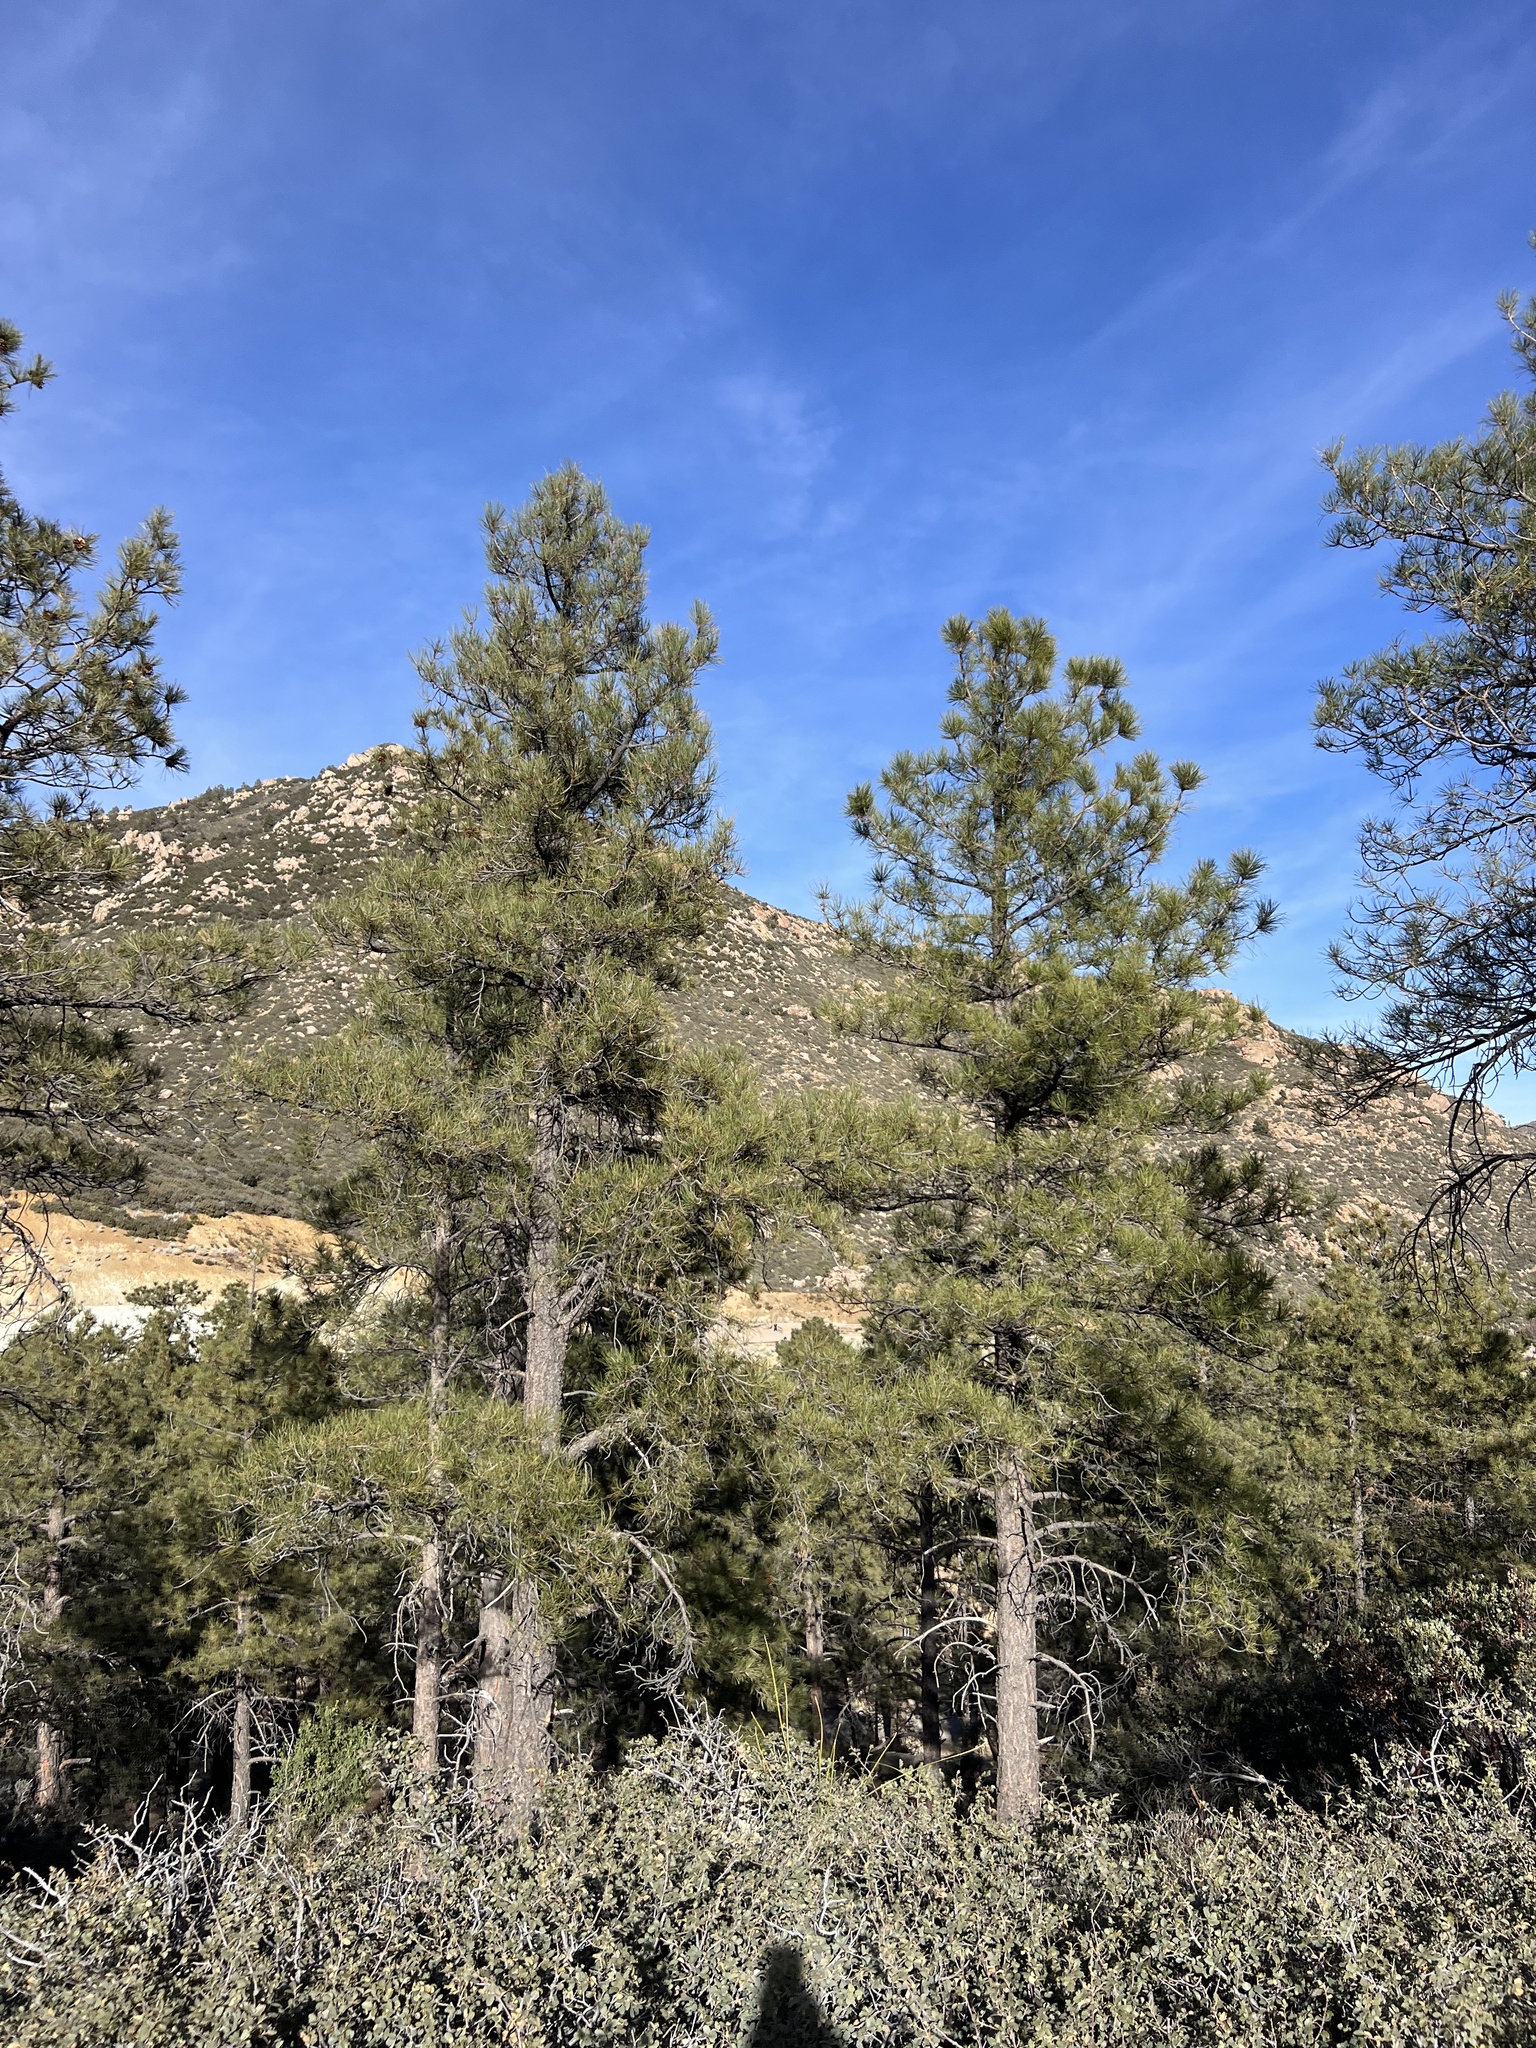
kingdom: Plantae
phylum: Tracheophyta
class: Pinopsida
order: Pinales
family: Pinaceae
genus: Pinus
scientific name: Pinus ponderosa
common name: Western yellow-pine
